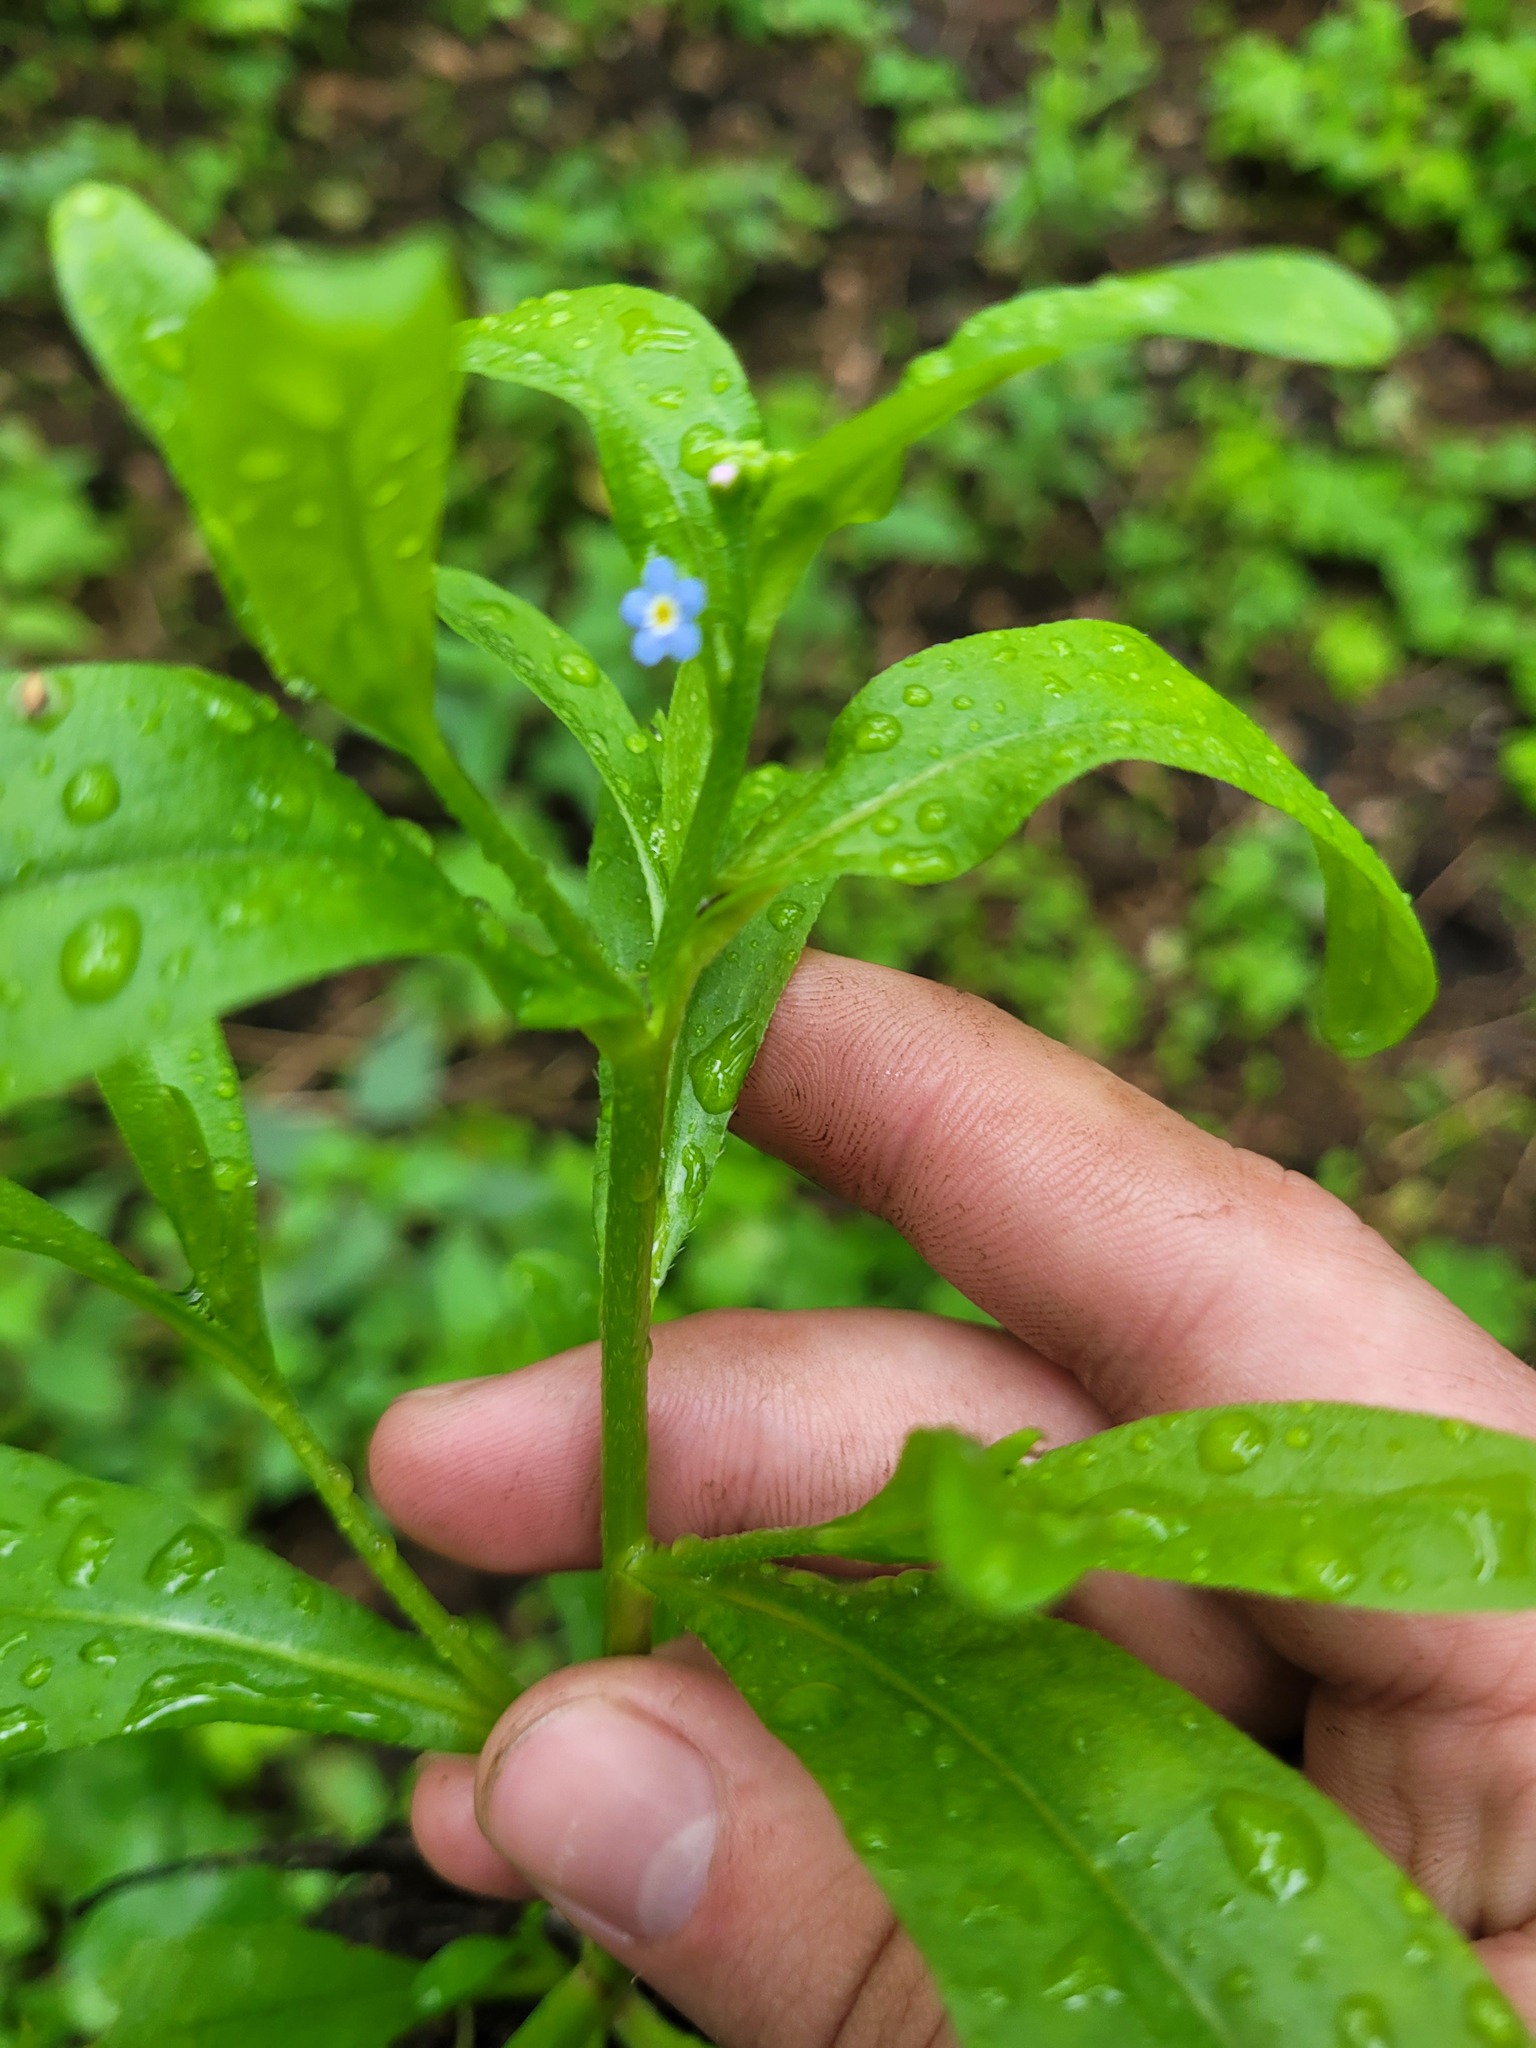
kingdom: Plantae
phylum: Tracheophyta
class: Magnoliopsida
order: Boraginales
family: Boraginaceae
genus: Myosotis
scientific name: Myosotis laxa
